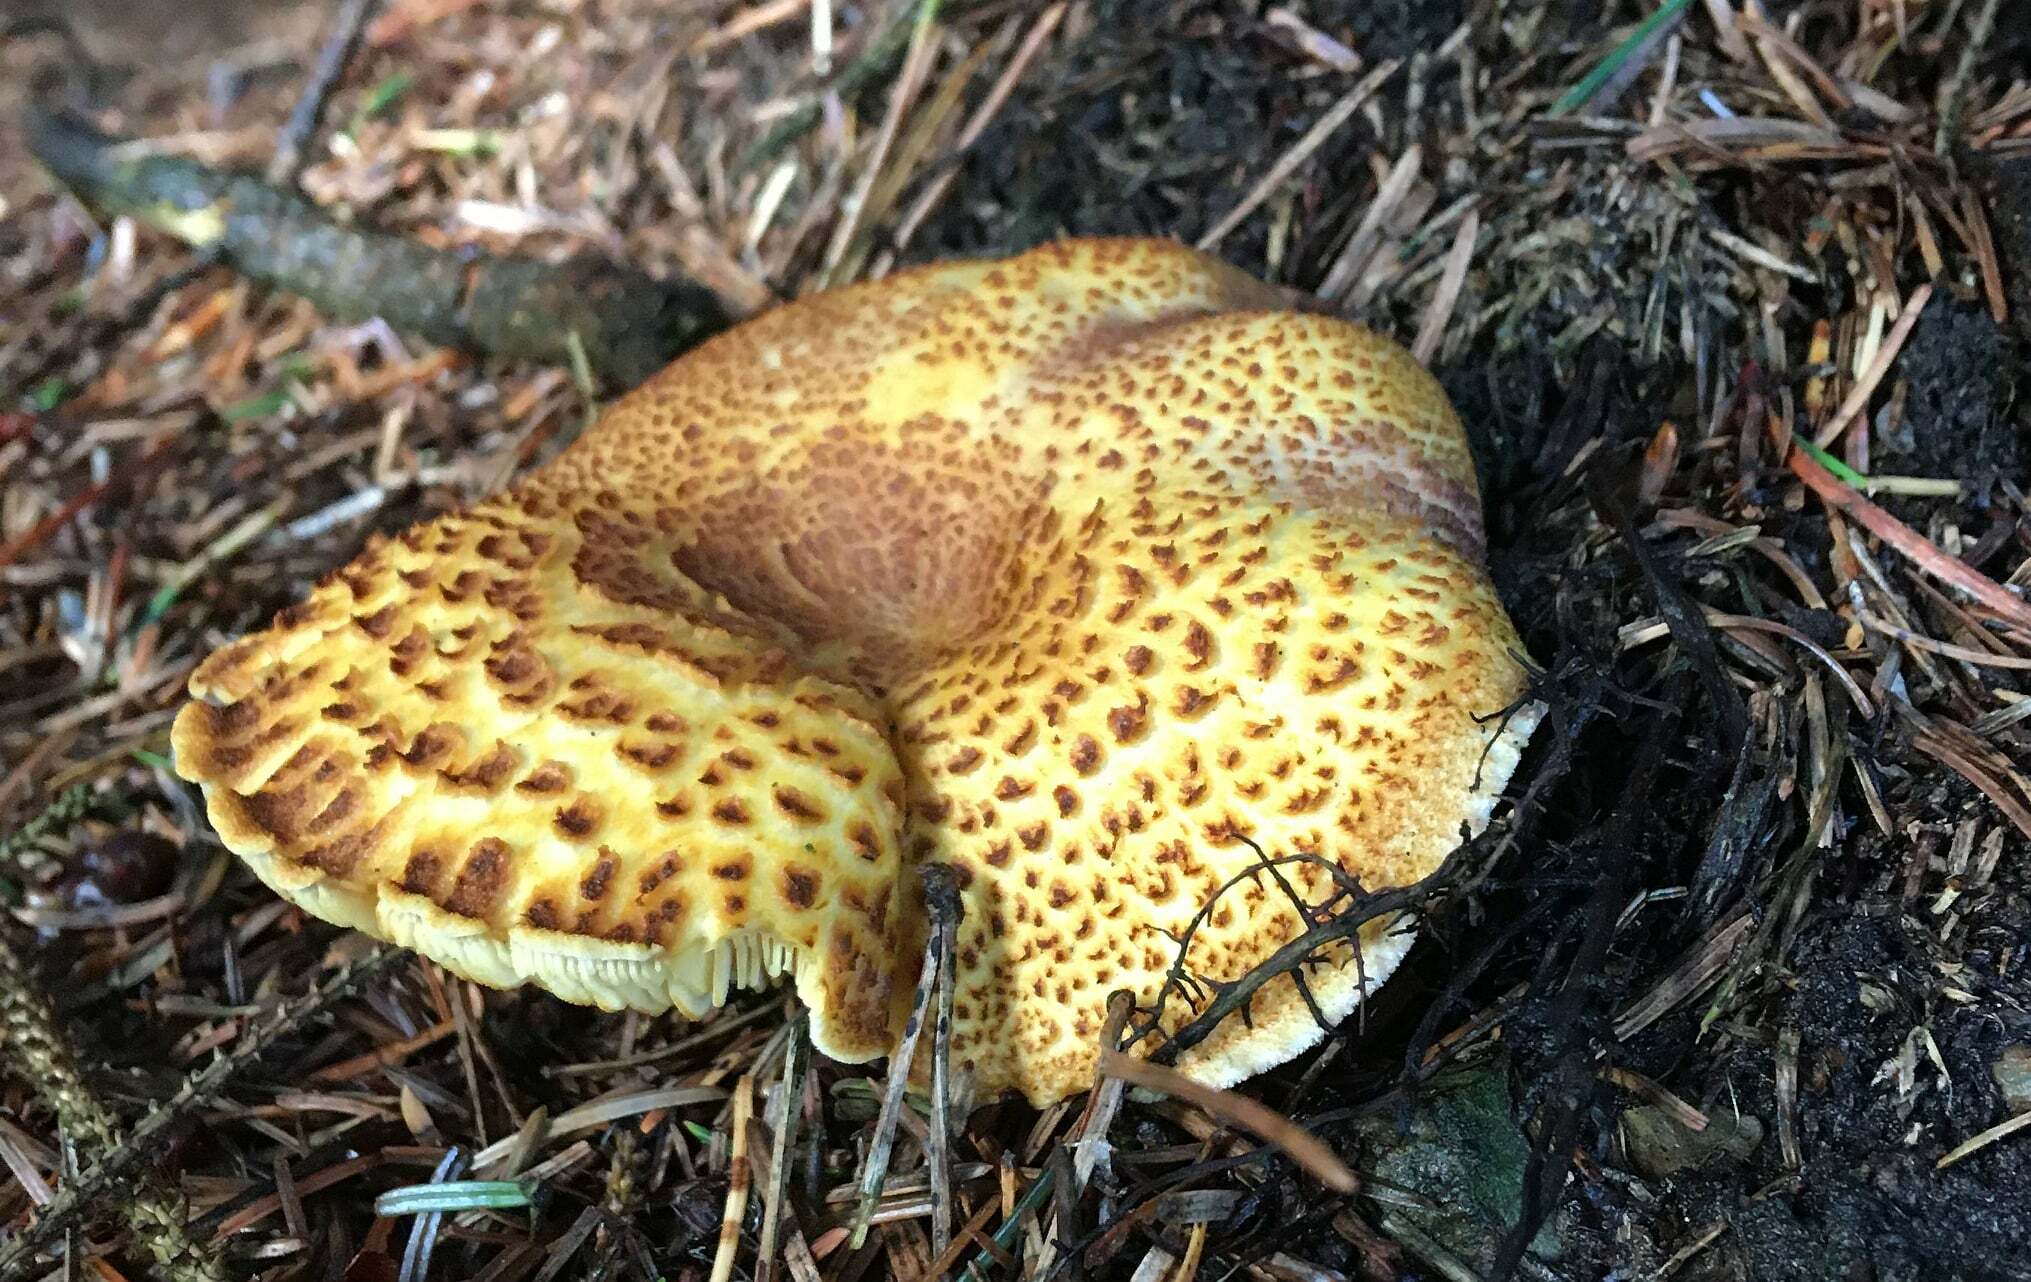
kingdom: Fungi
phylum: Basidiomycota
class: Agaricomycetes
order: Agaricales
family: Tricholomataceae
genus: Tricholomopsis
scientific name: Tricholomopsis rutilans
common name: Plums and custard
